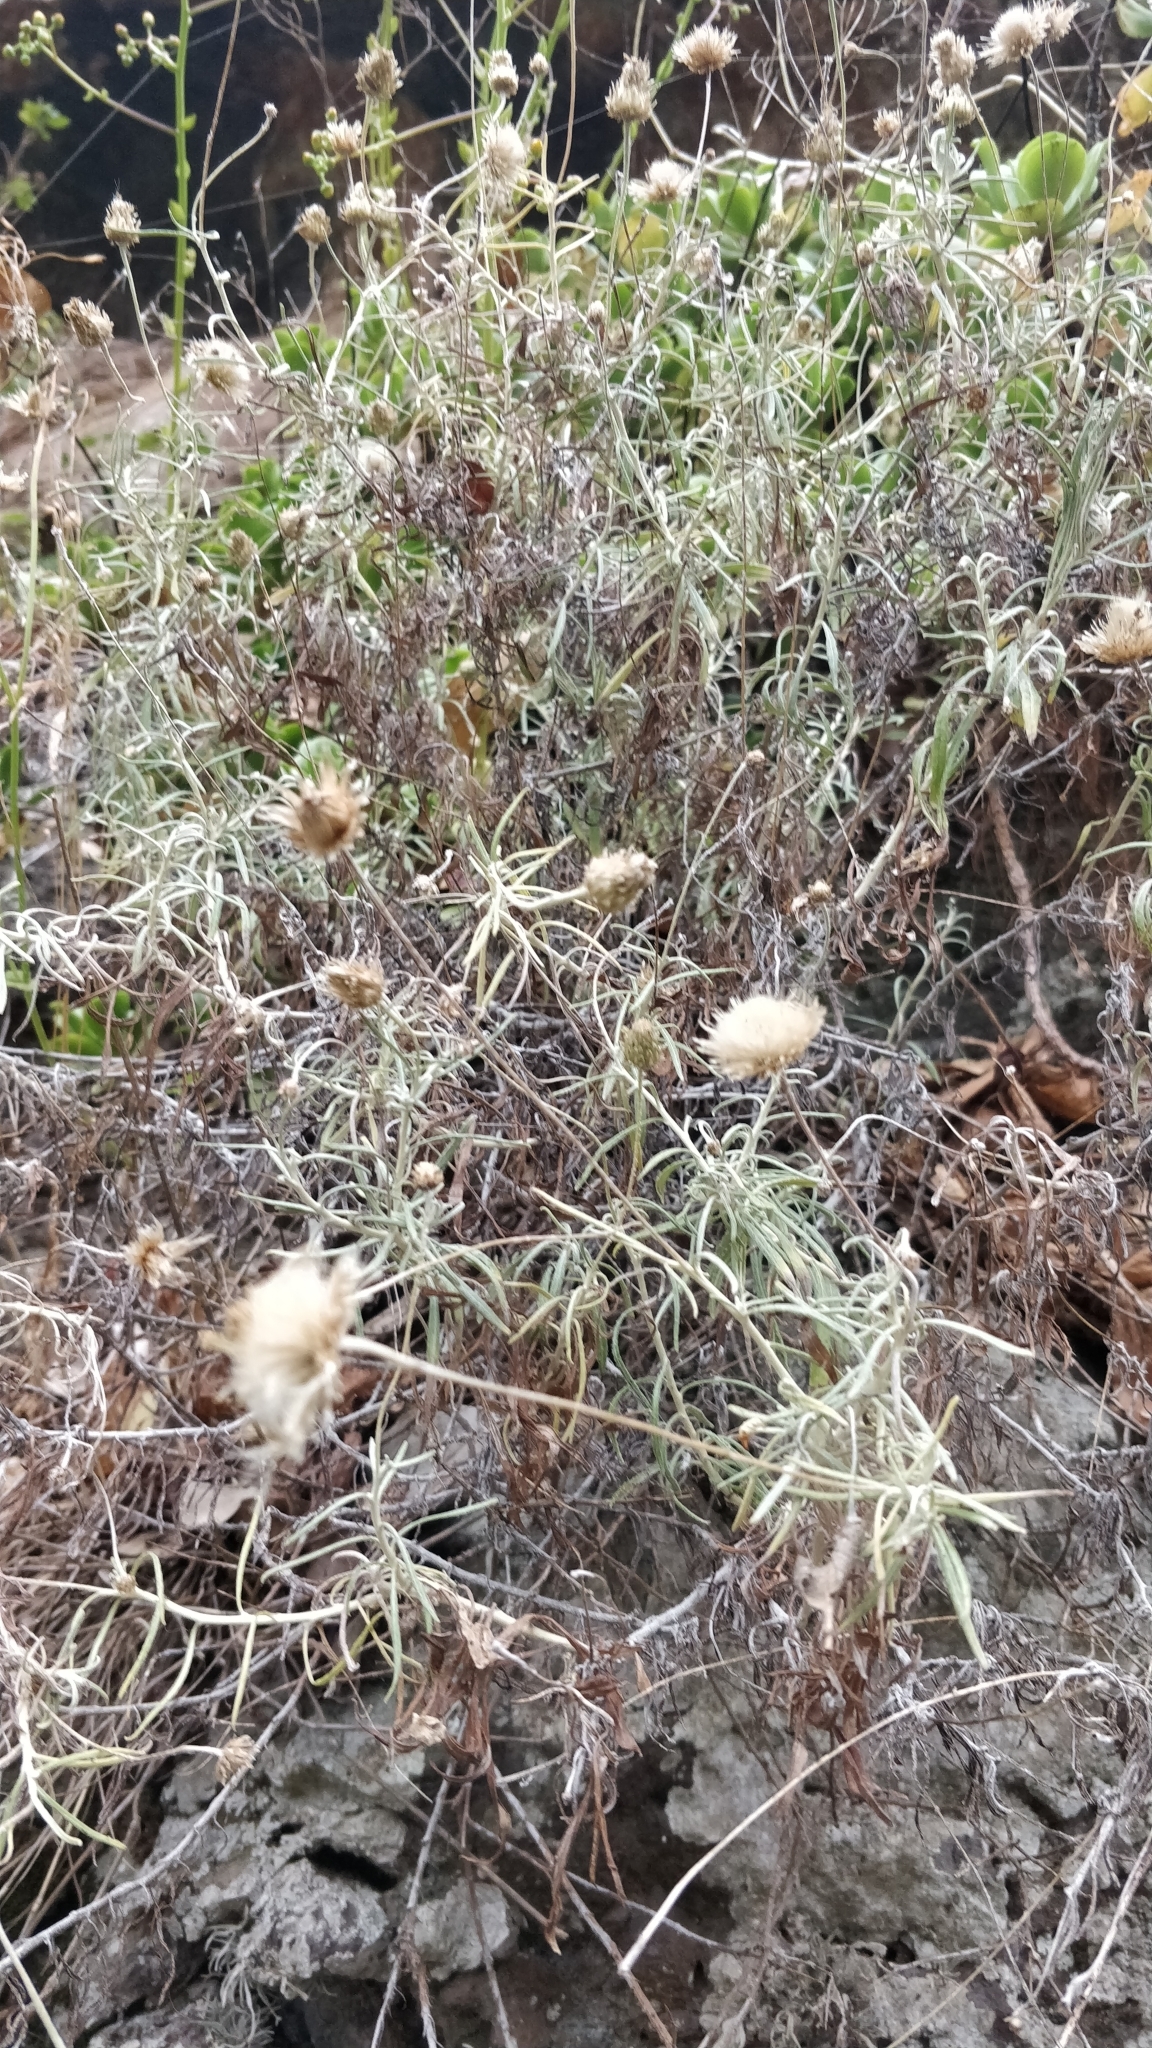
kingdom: Plantae
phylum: Tracheophyta
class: Magnoliopsida
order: Asterales
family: Asteraceae
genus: Phagnalon
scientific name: Phagnalon saxatile
